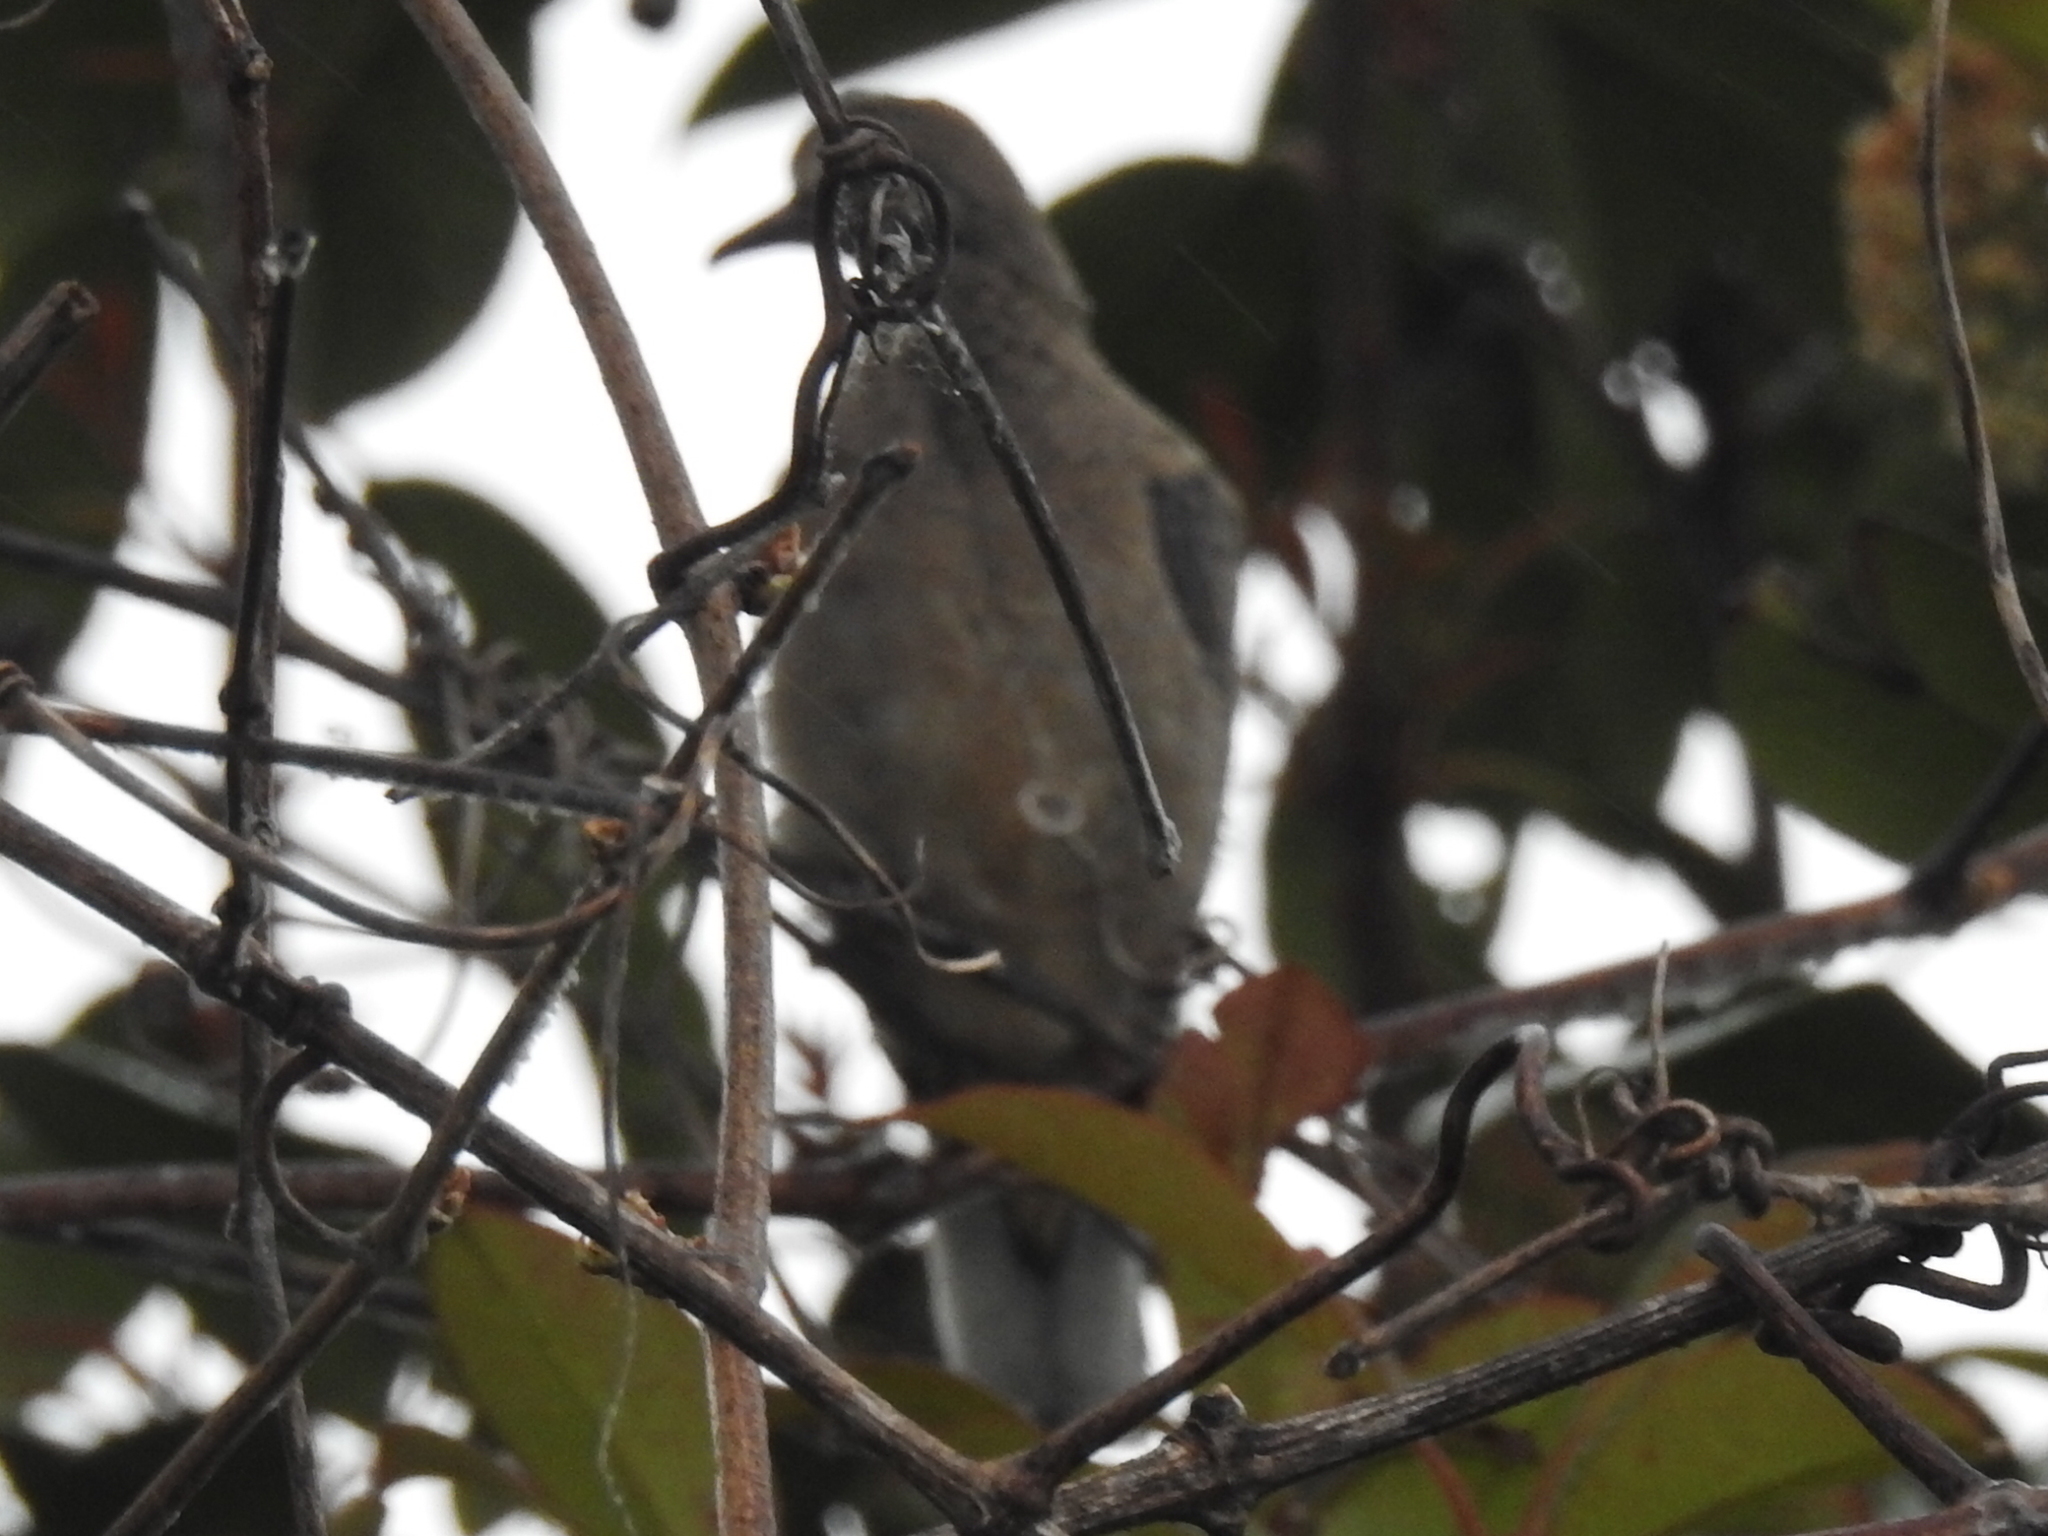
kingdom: Animalia
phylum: Chordata
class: Aves
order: Columbiformes
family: Columbidae
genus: Zenaida
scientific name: Zenaida macroura
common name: Mourning dove
